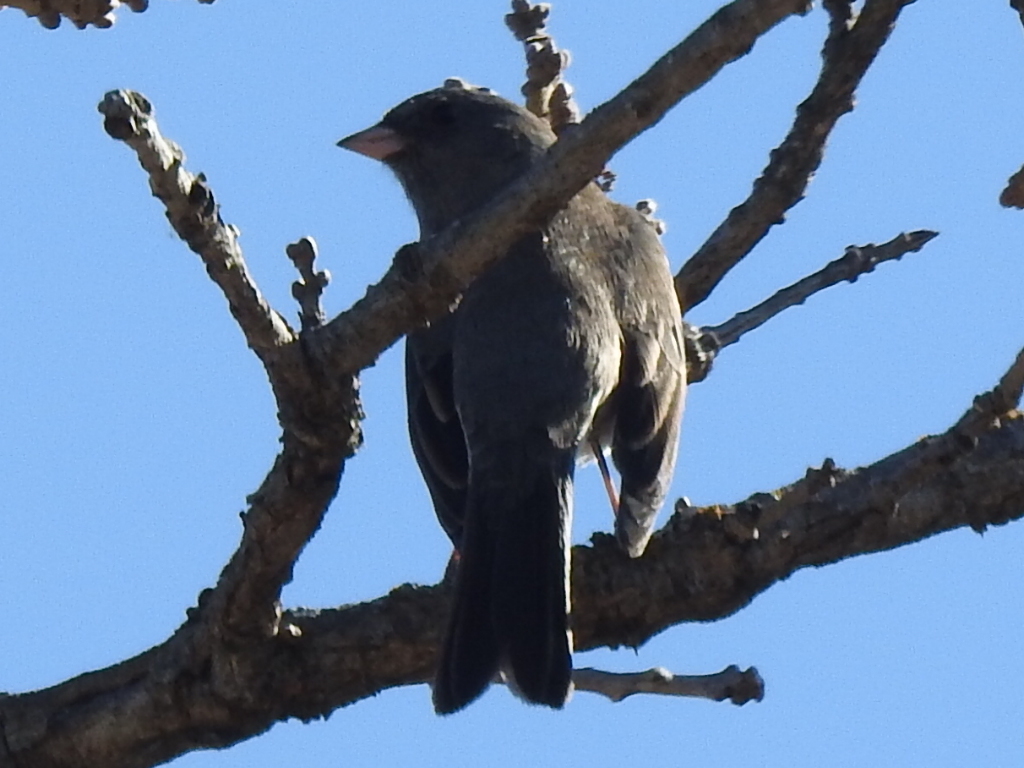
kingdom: Animalia
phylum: Chordata
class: Aves
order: Passeriformes
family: Passerellidae
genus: Junco
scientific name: Junco hyemalis
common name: Dark-eyed junco
